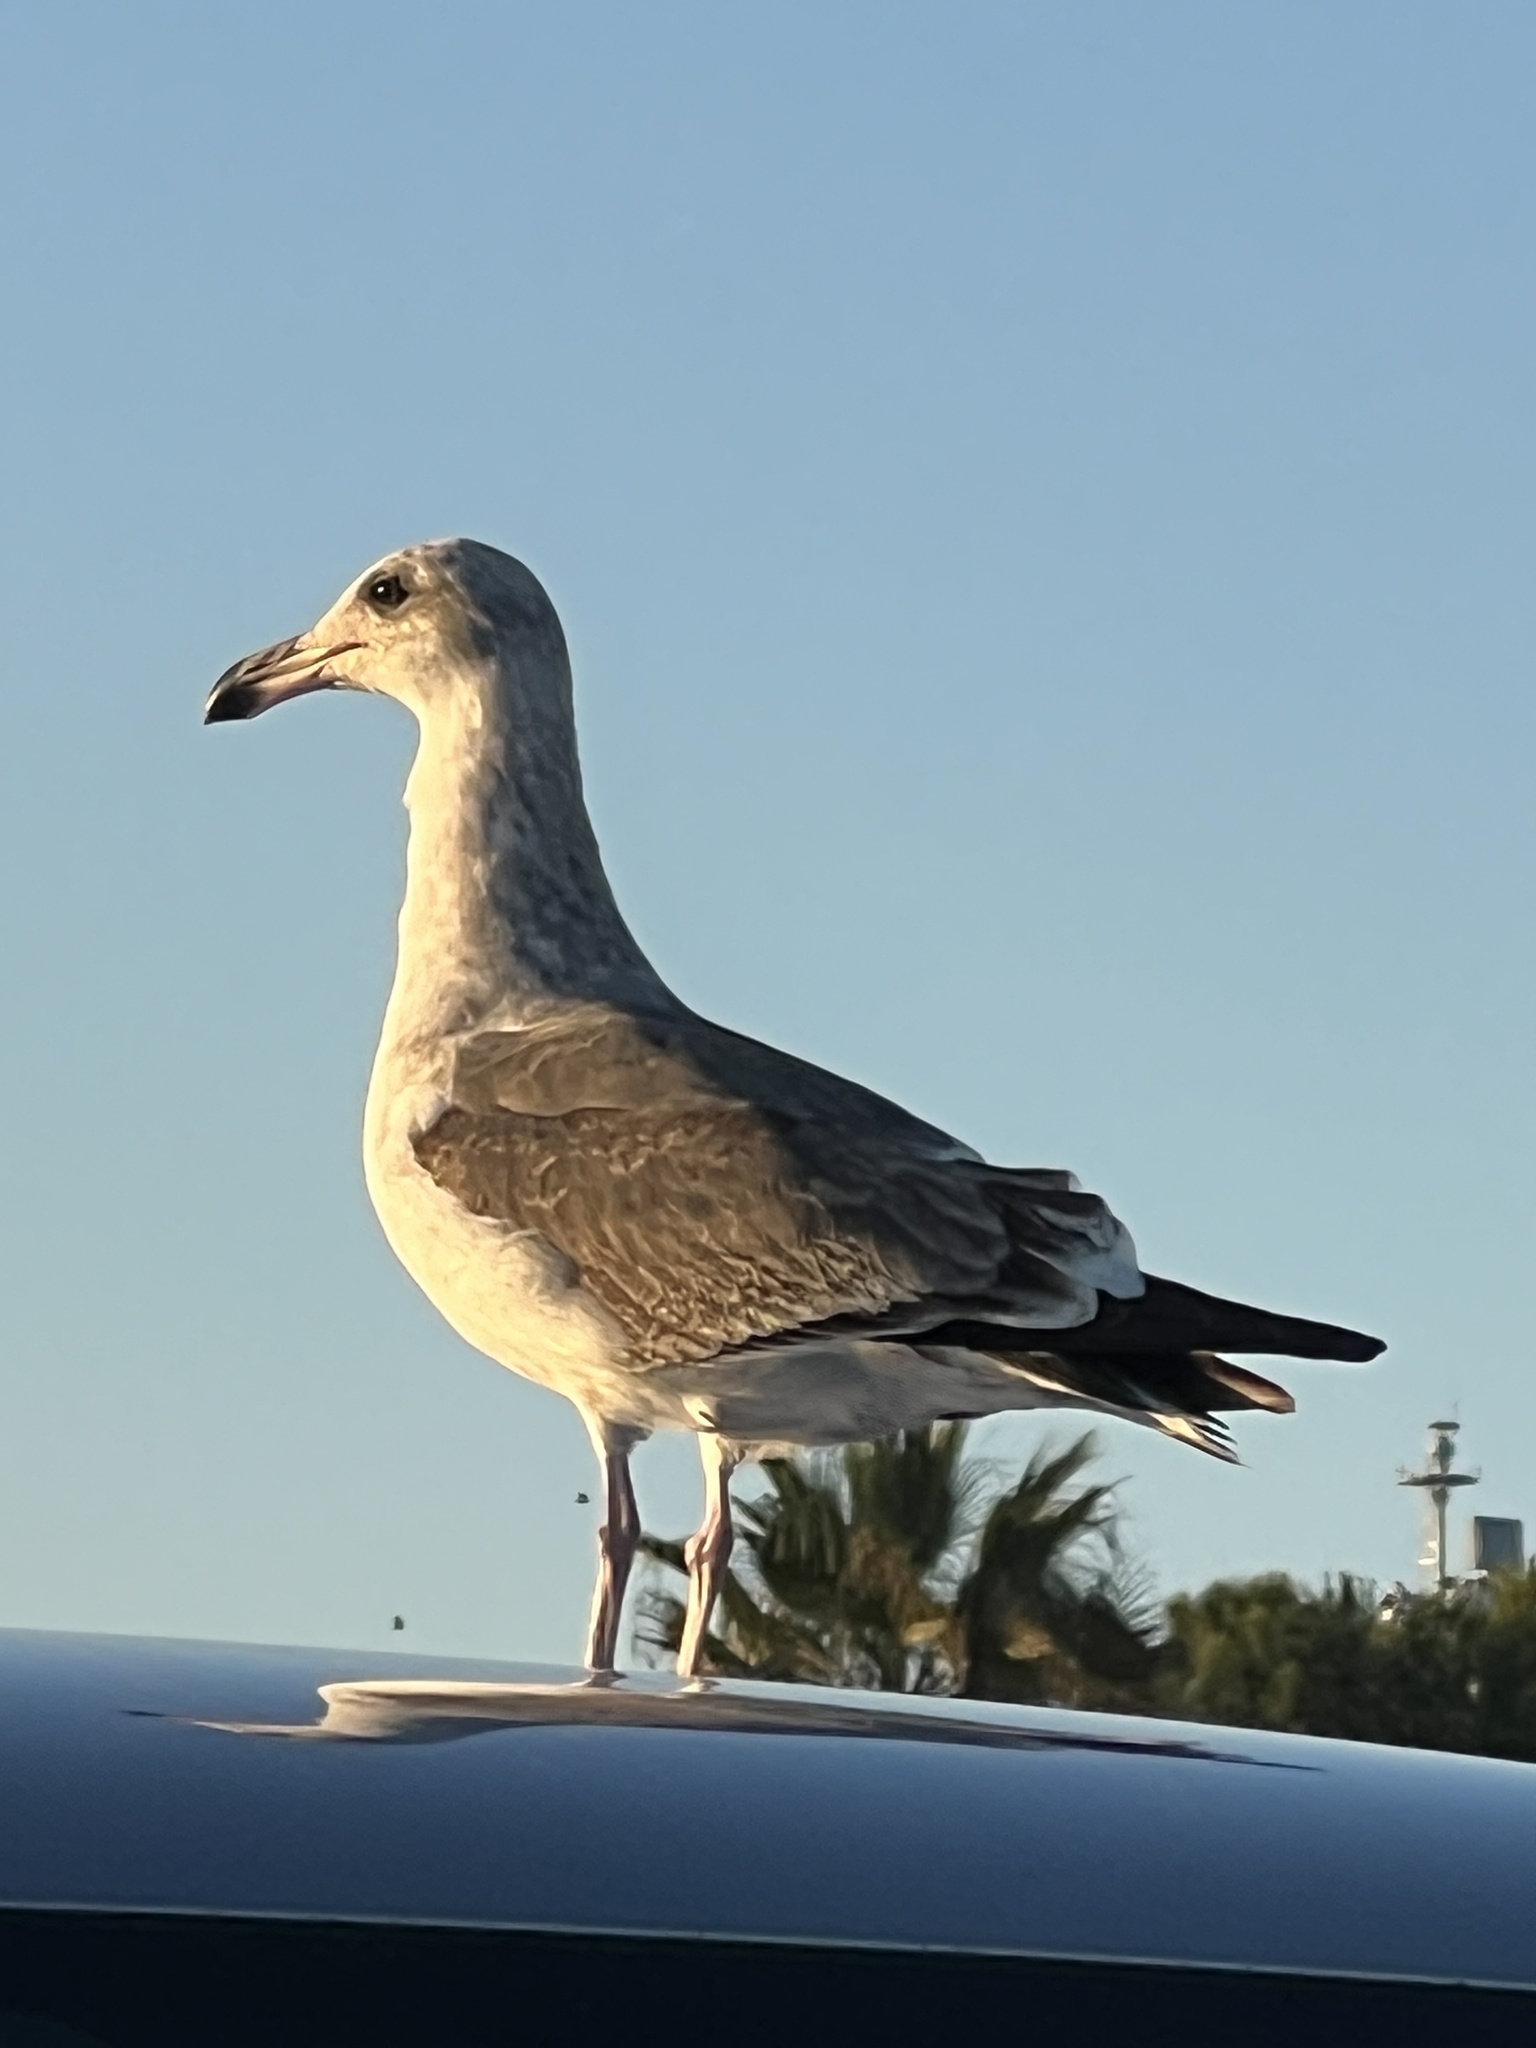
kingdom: Animalia
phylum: Chordata
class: Aves
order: Charadriiformes
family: Laridae
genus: Larus
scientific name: Larus occidentalis
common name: Western gull
